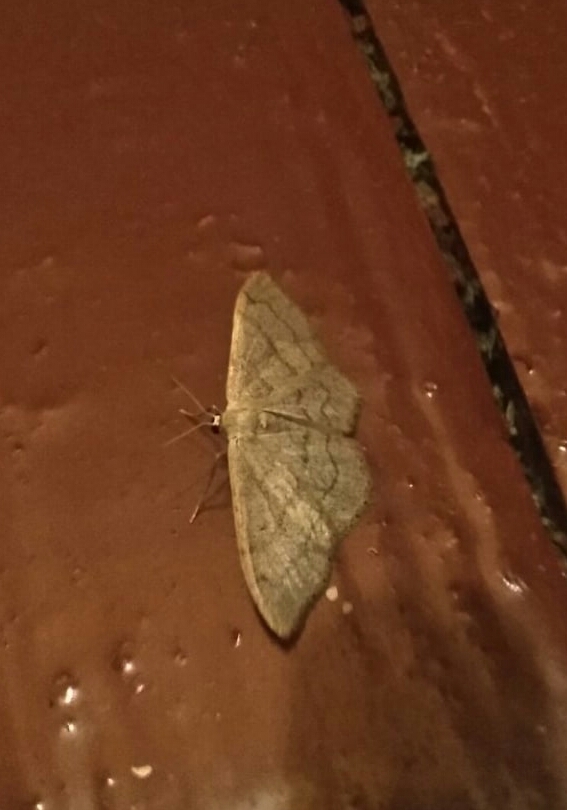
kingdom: Animalia
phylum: Arthropoda
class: Insecta
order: Lepidoptera
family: Geometridae
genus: Idaea
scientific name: Idaea aversata
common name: Riband wave
